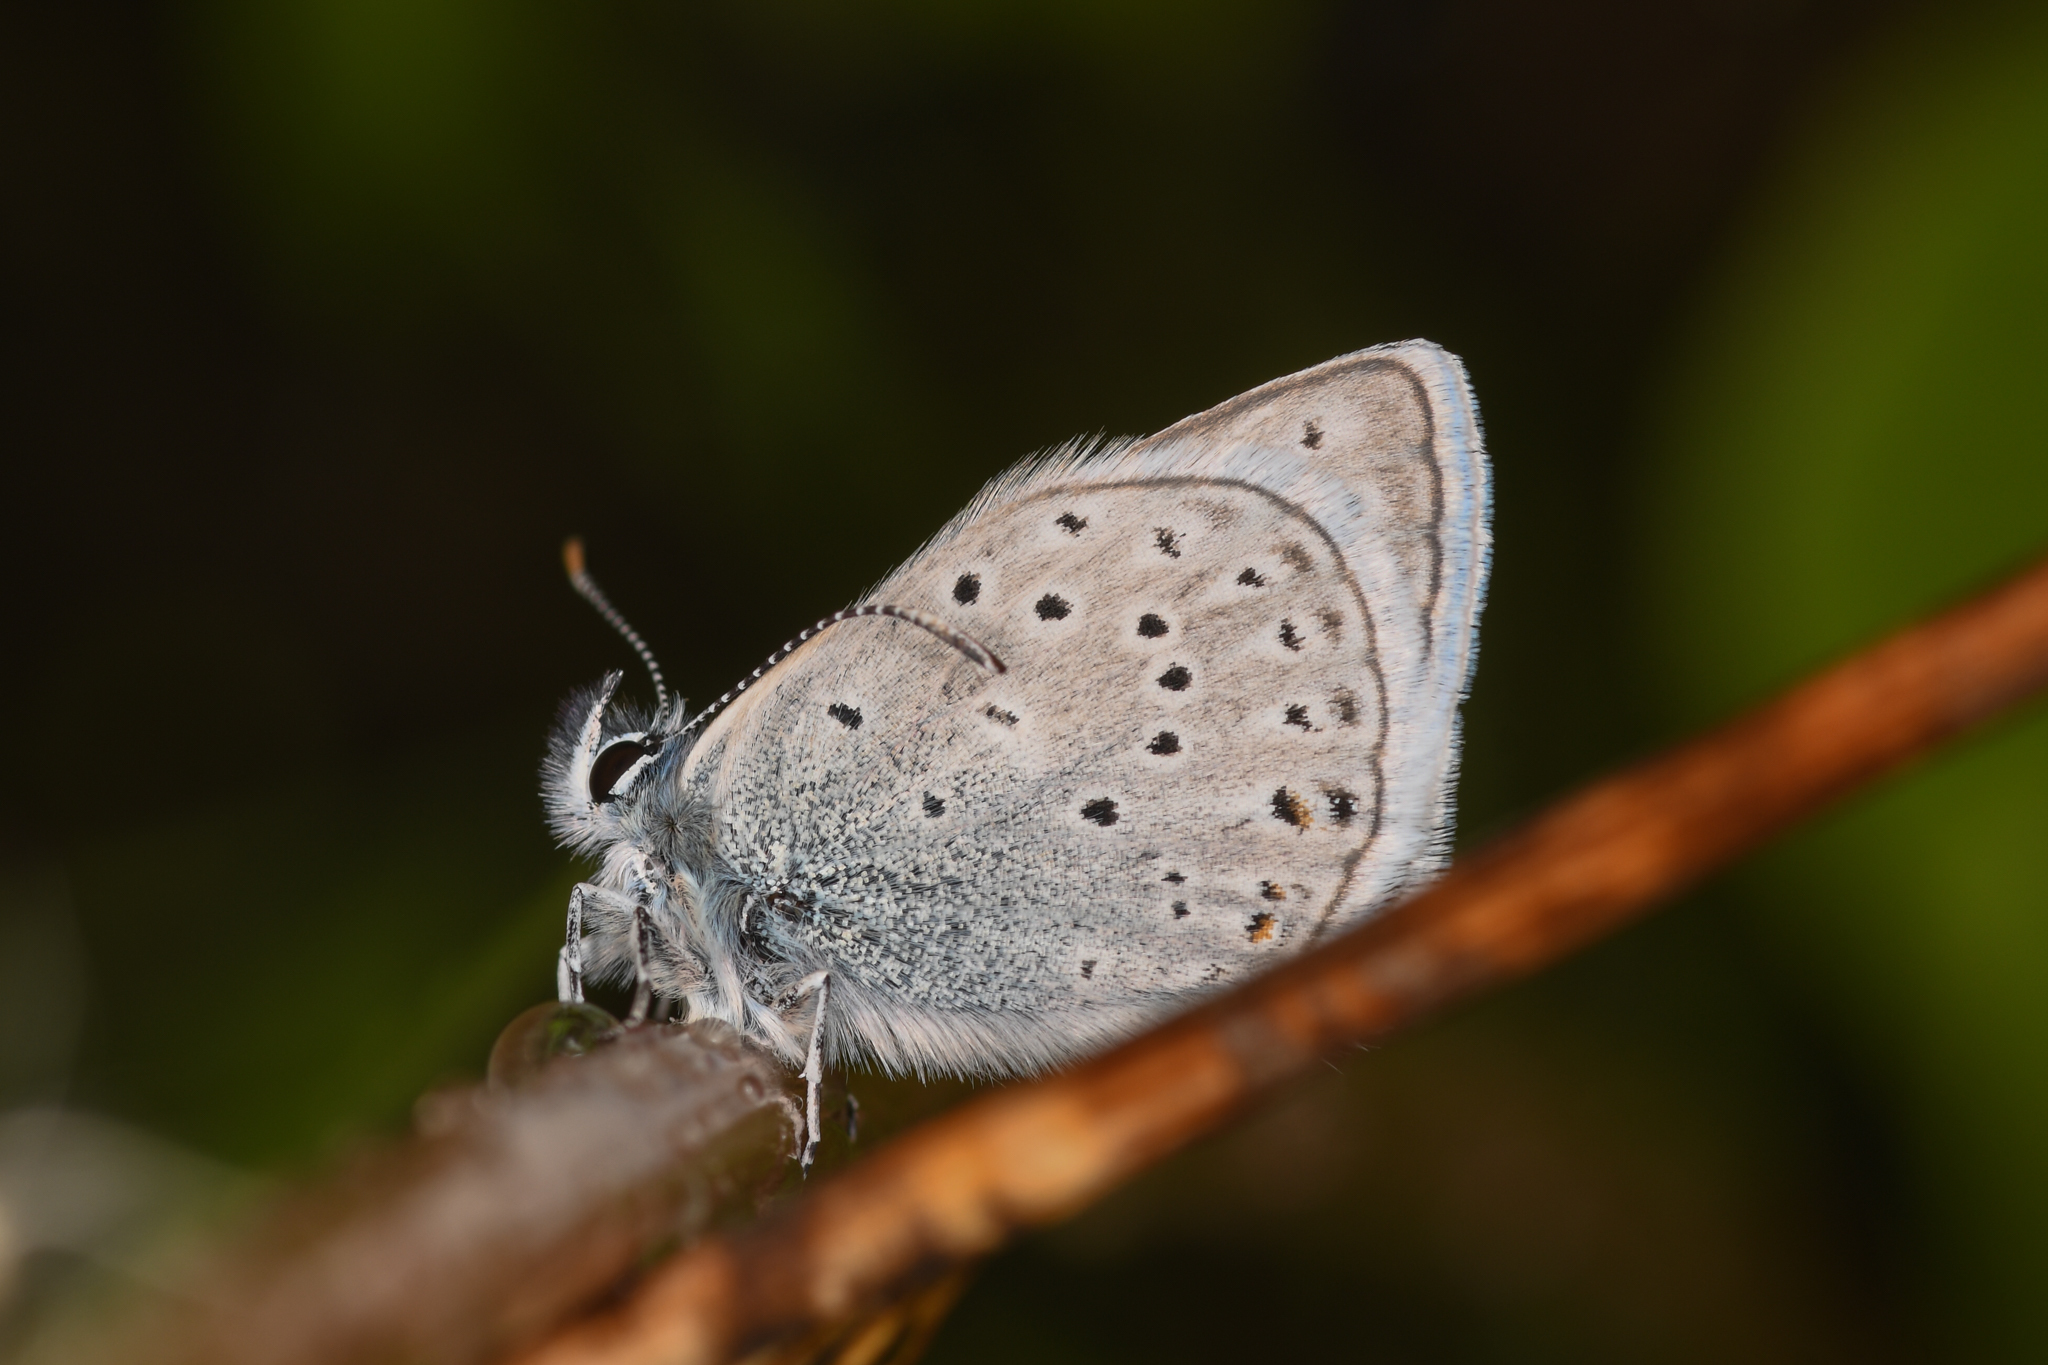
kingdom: Animalia
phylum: Arthropoda
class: Insecta
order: Lepidoptera
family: Lycaenidae
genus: Icaricia
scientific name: Icaricia saepiolus
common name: Greenish blue
